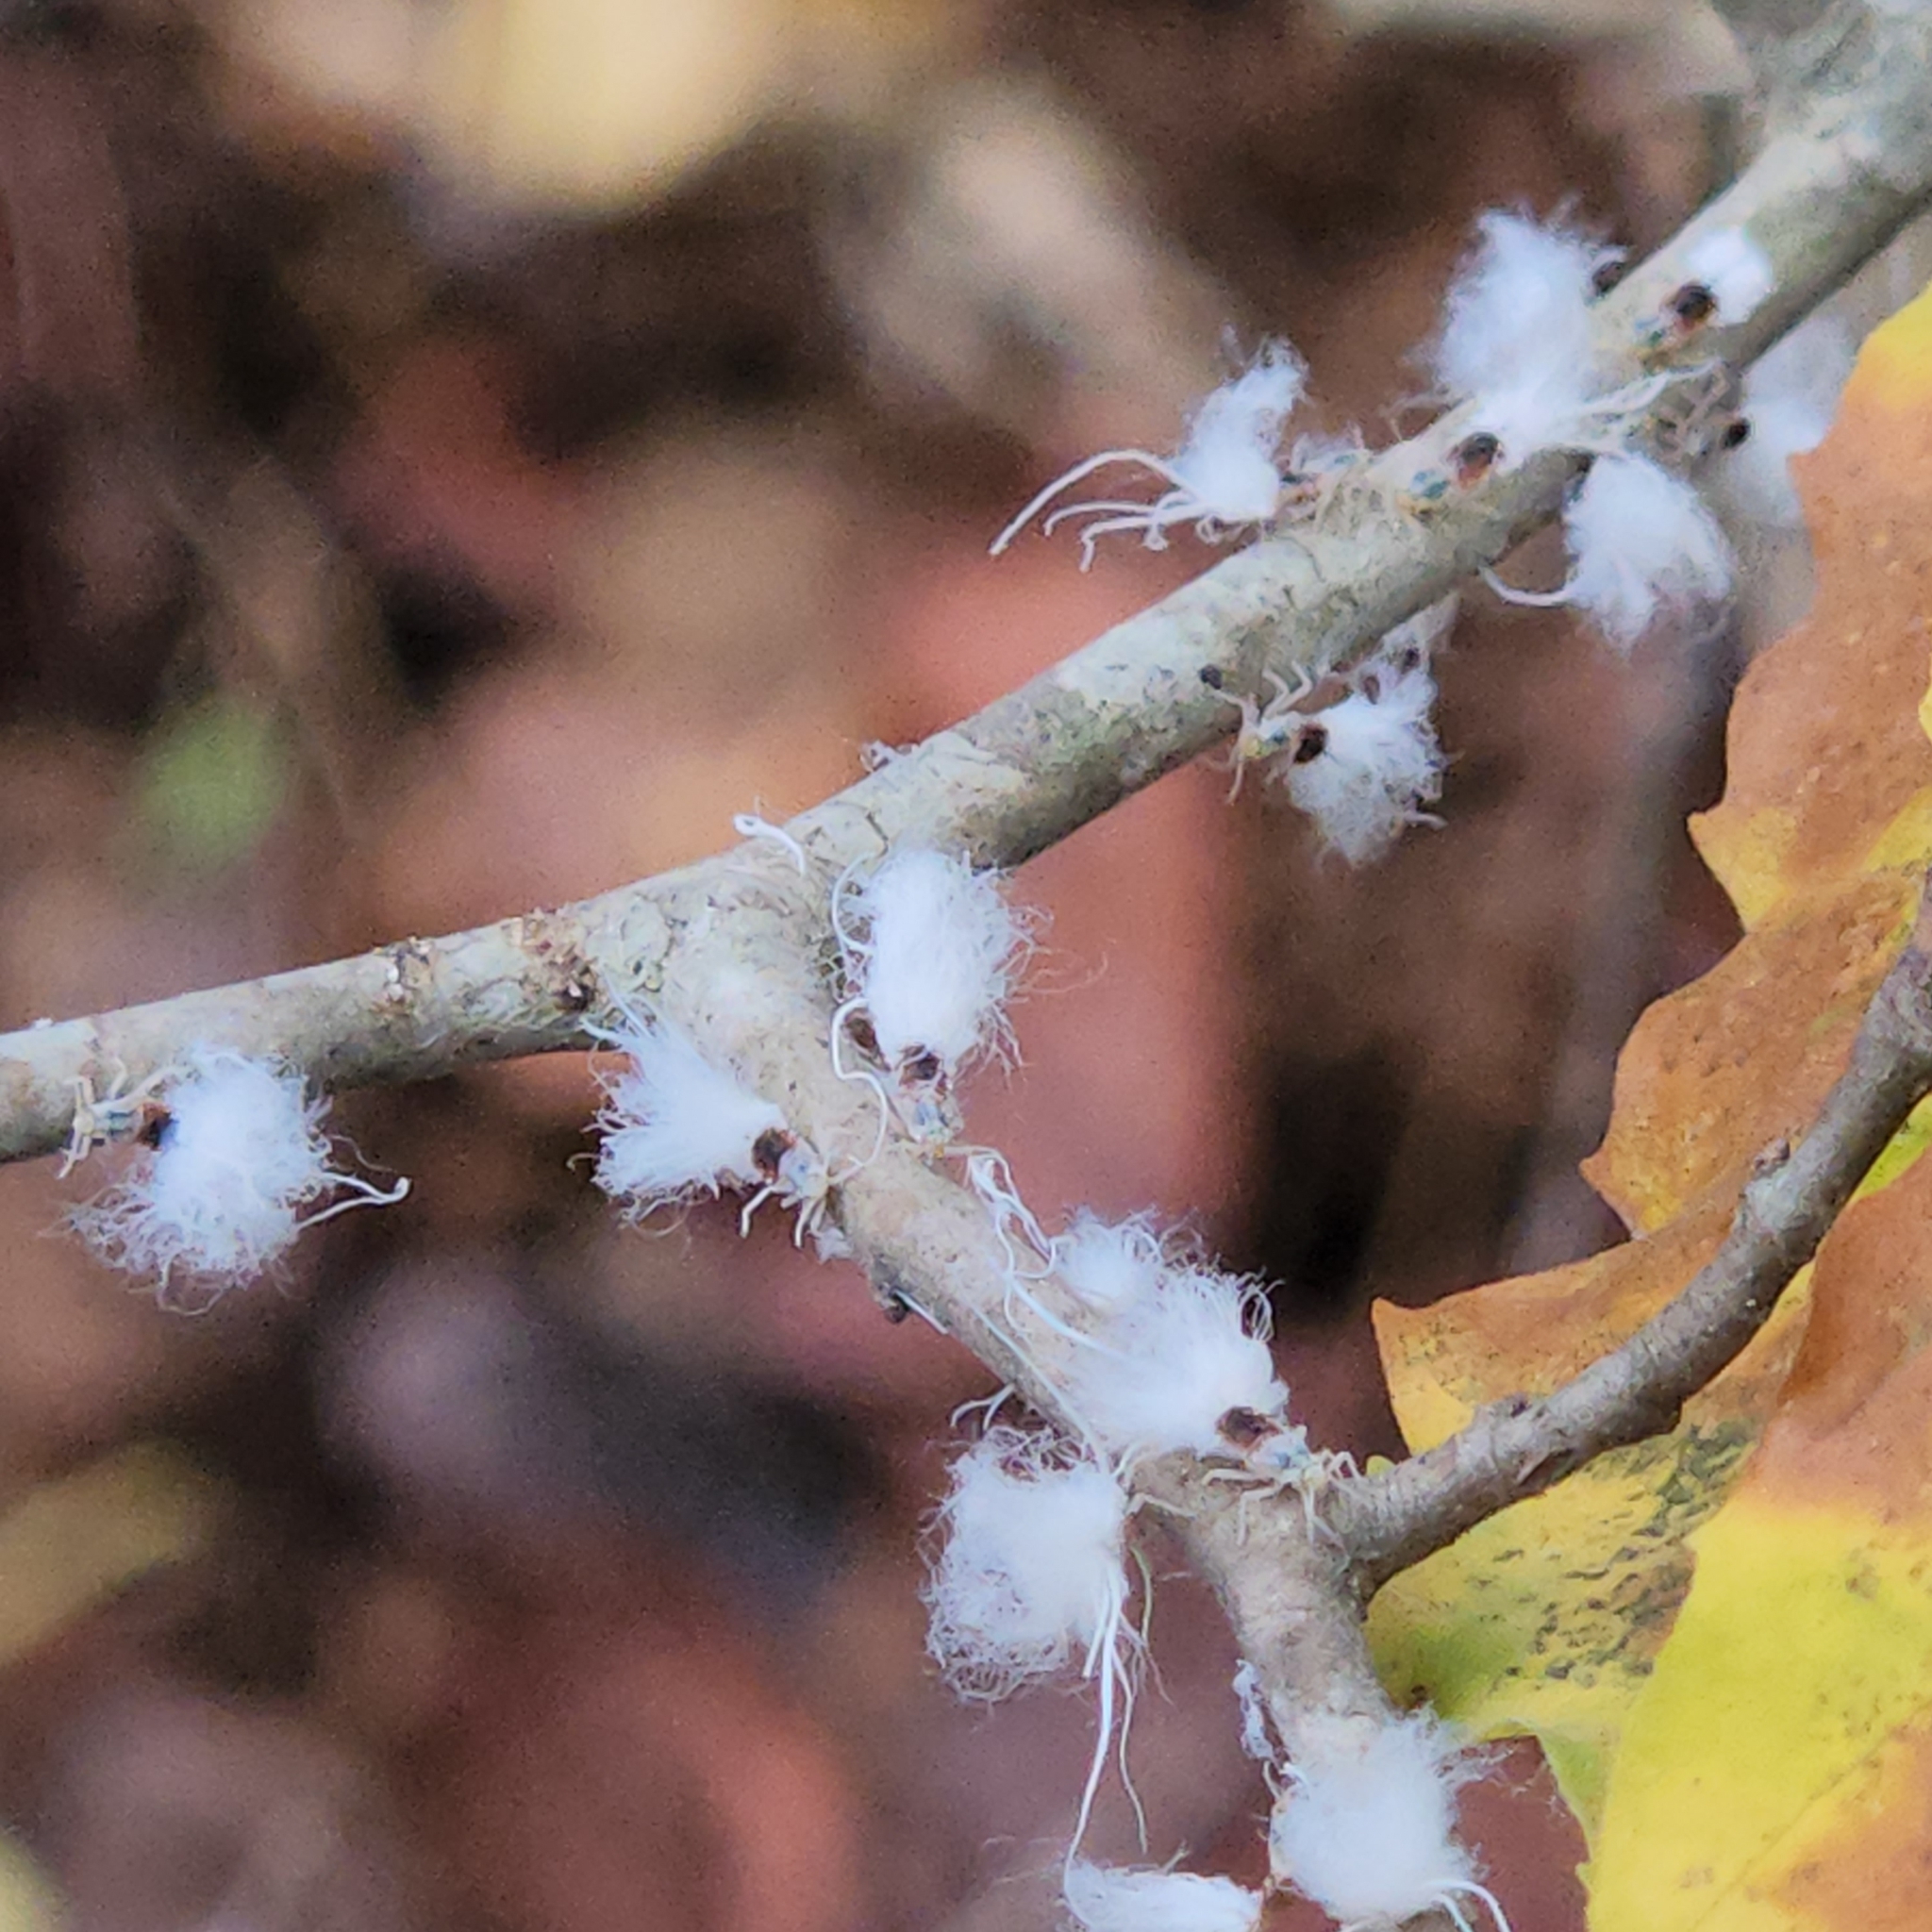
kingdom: Animalia
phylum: Arthropoda
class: Insecta
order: Hemiptera
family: Aphididae
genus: Grylloprociphilus
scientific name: Grylloprociphilus imbricator
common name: Beech blight aphid
